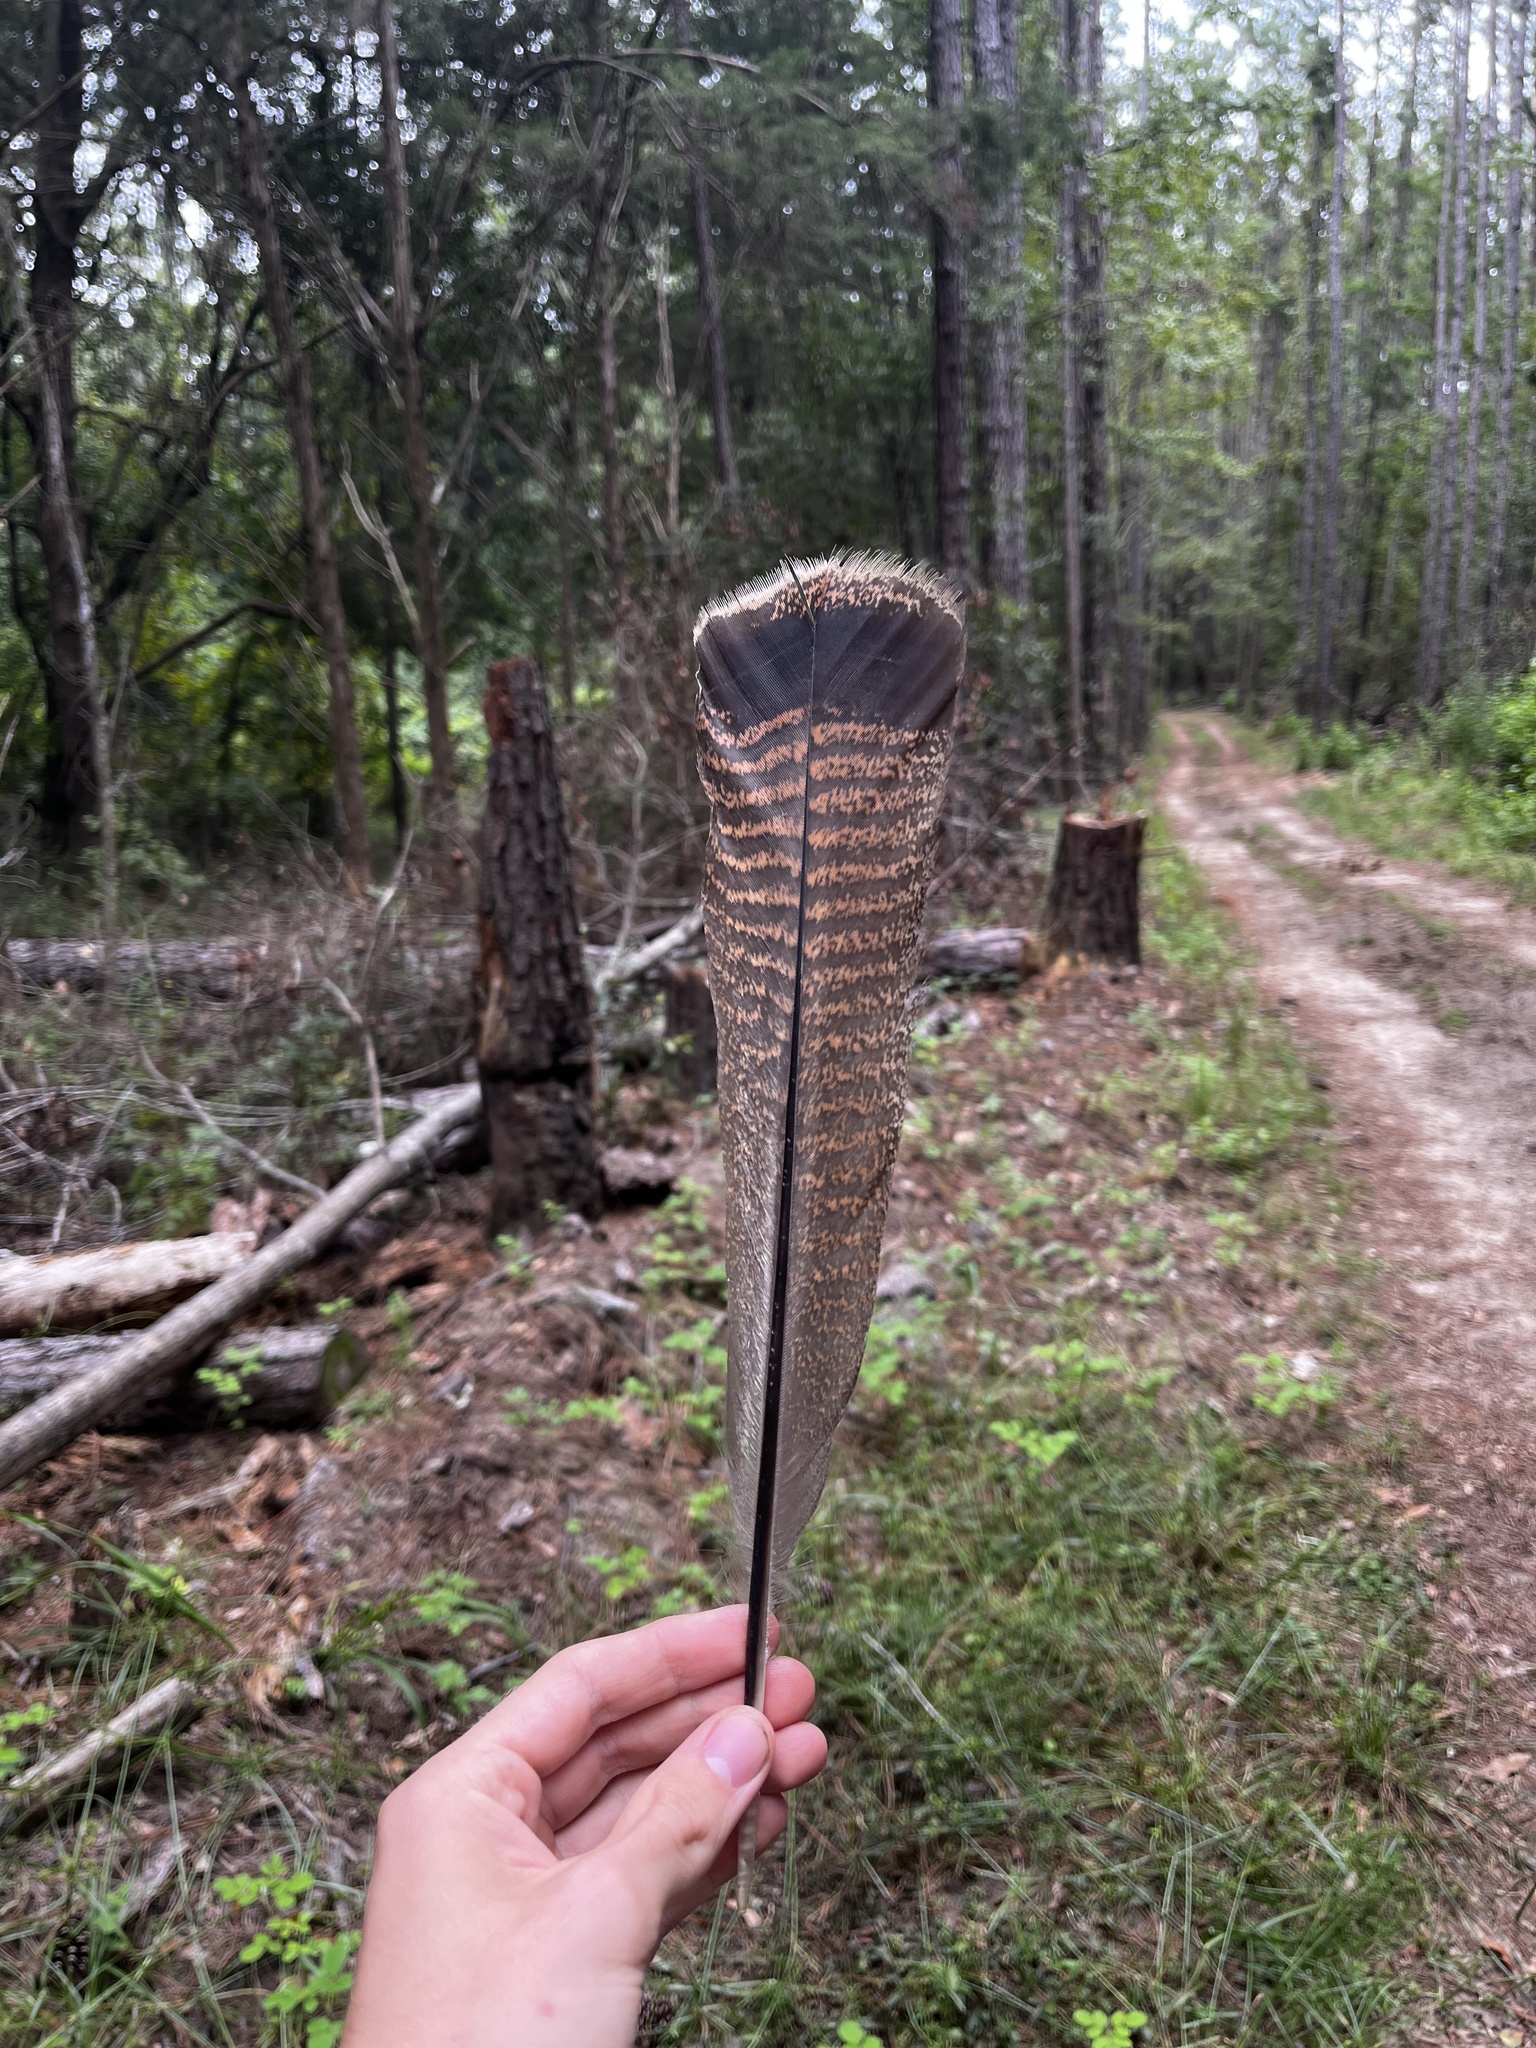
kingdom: Animalia
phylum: Chordata
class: Aves
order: Galliformes
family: Phasianidae
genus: Meleagris
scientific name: Meleagris gallopavo
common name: Wild turkey
